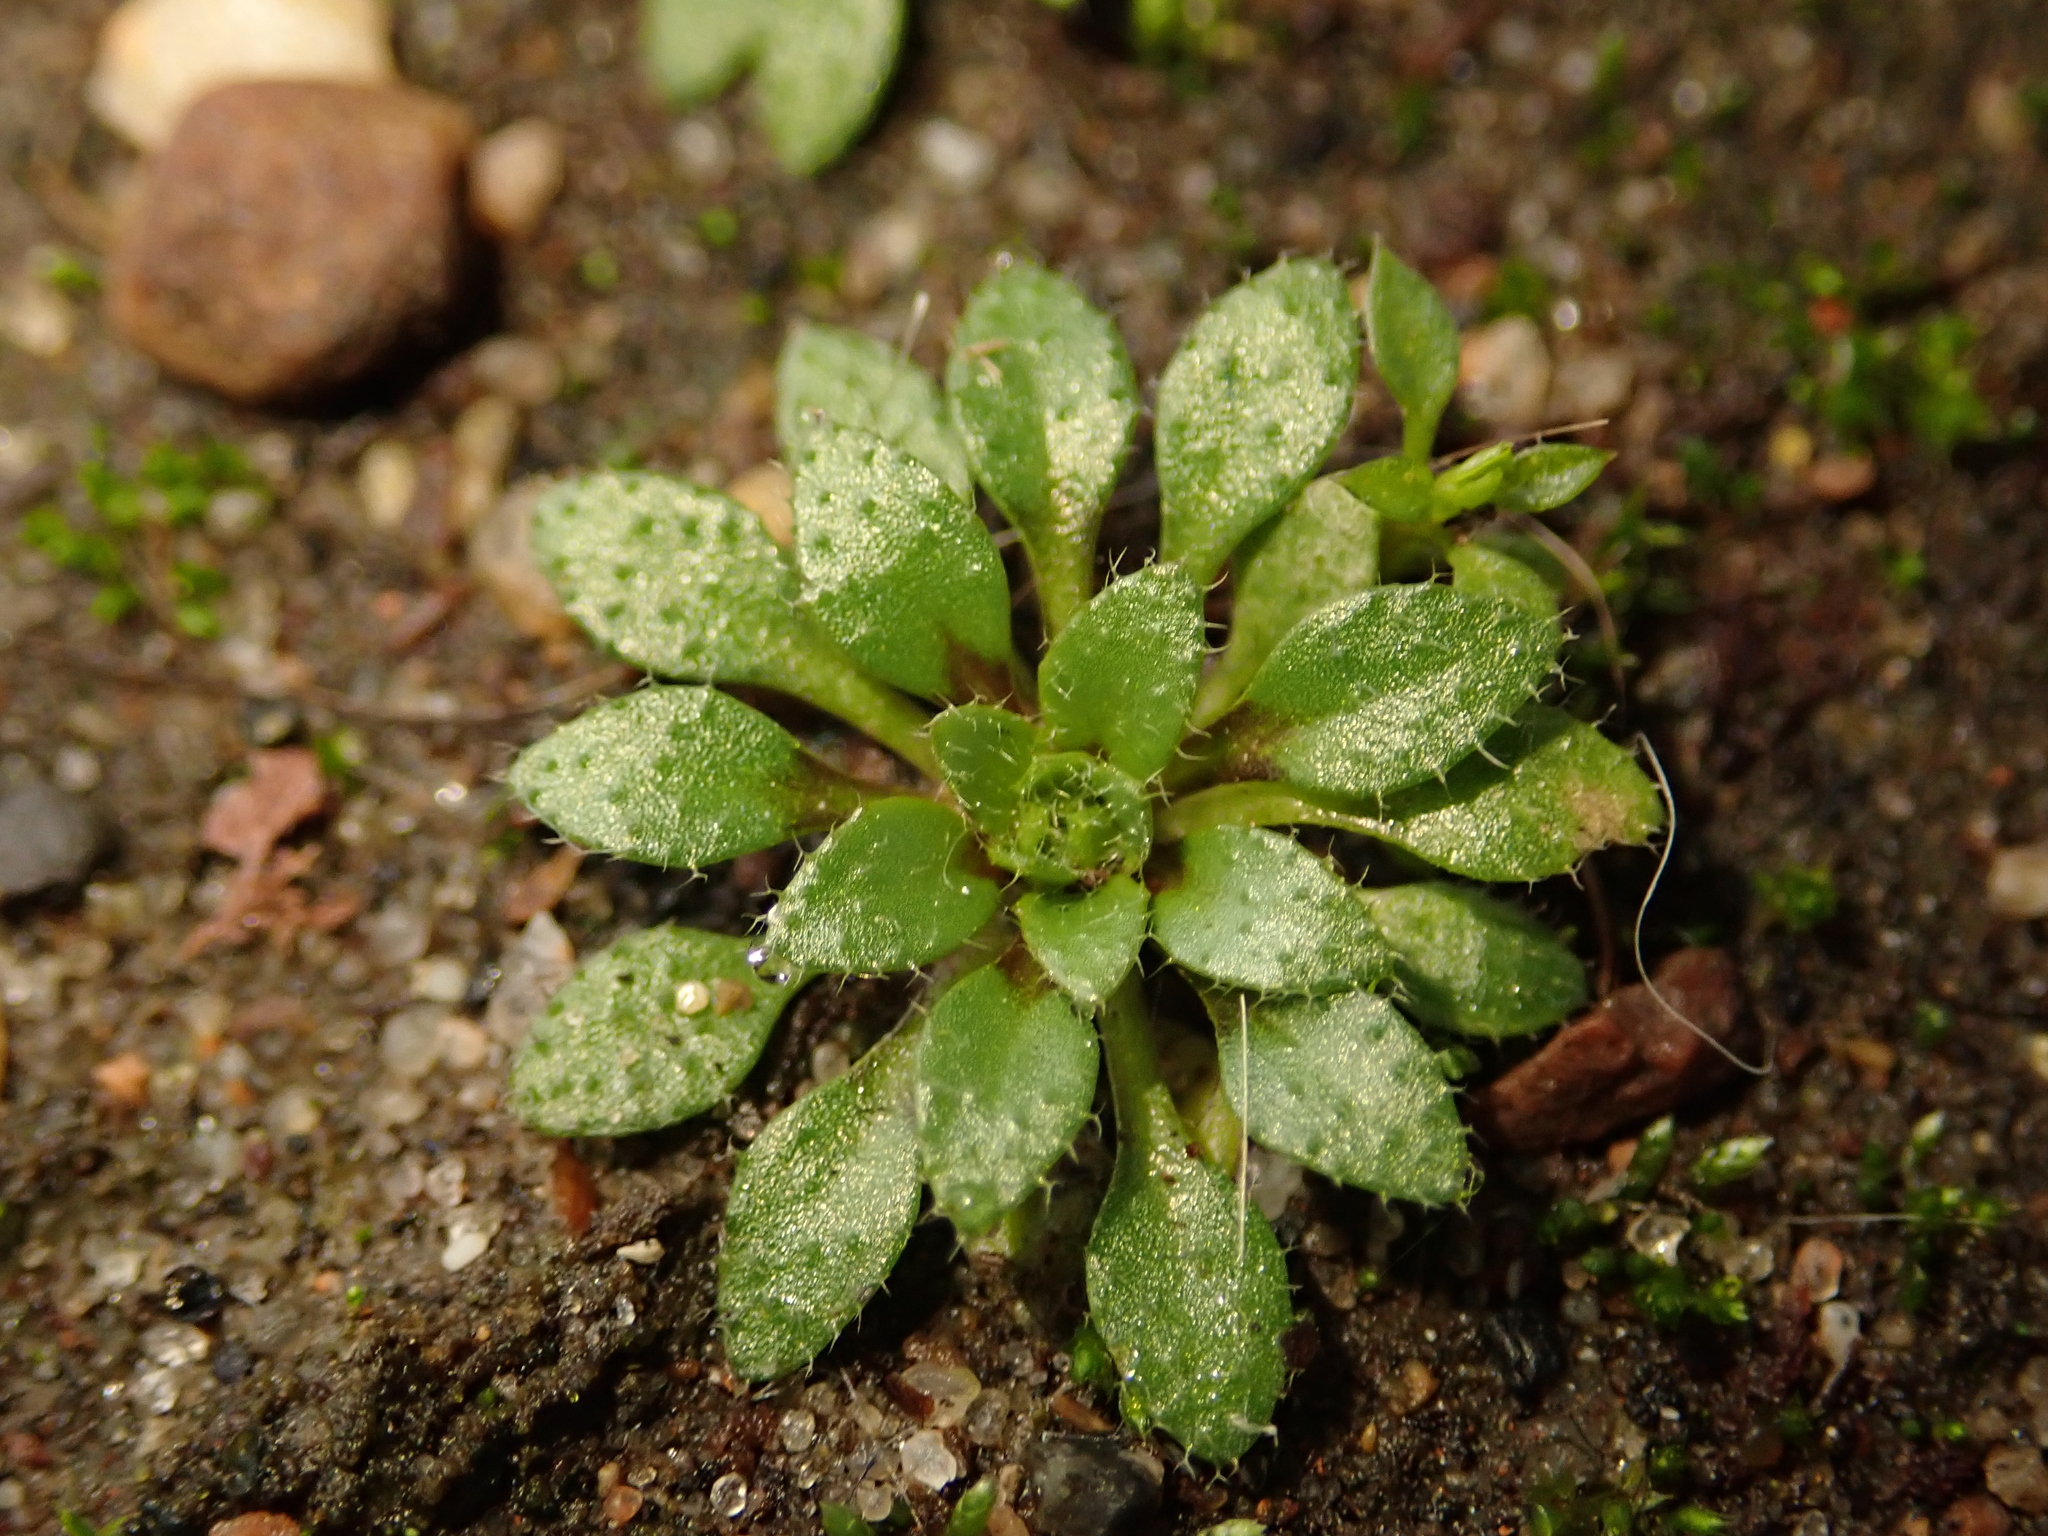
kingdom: Plantae
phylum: Tracheophyta
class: Magnoliopsida
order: Brassicales
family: Brassicaceae
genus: Draba
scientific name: Draba verna
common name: Spring draba
